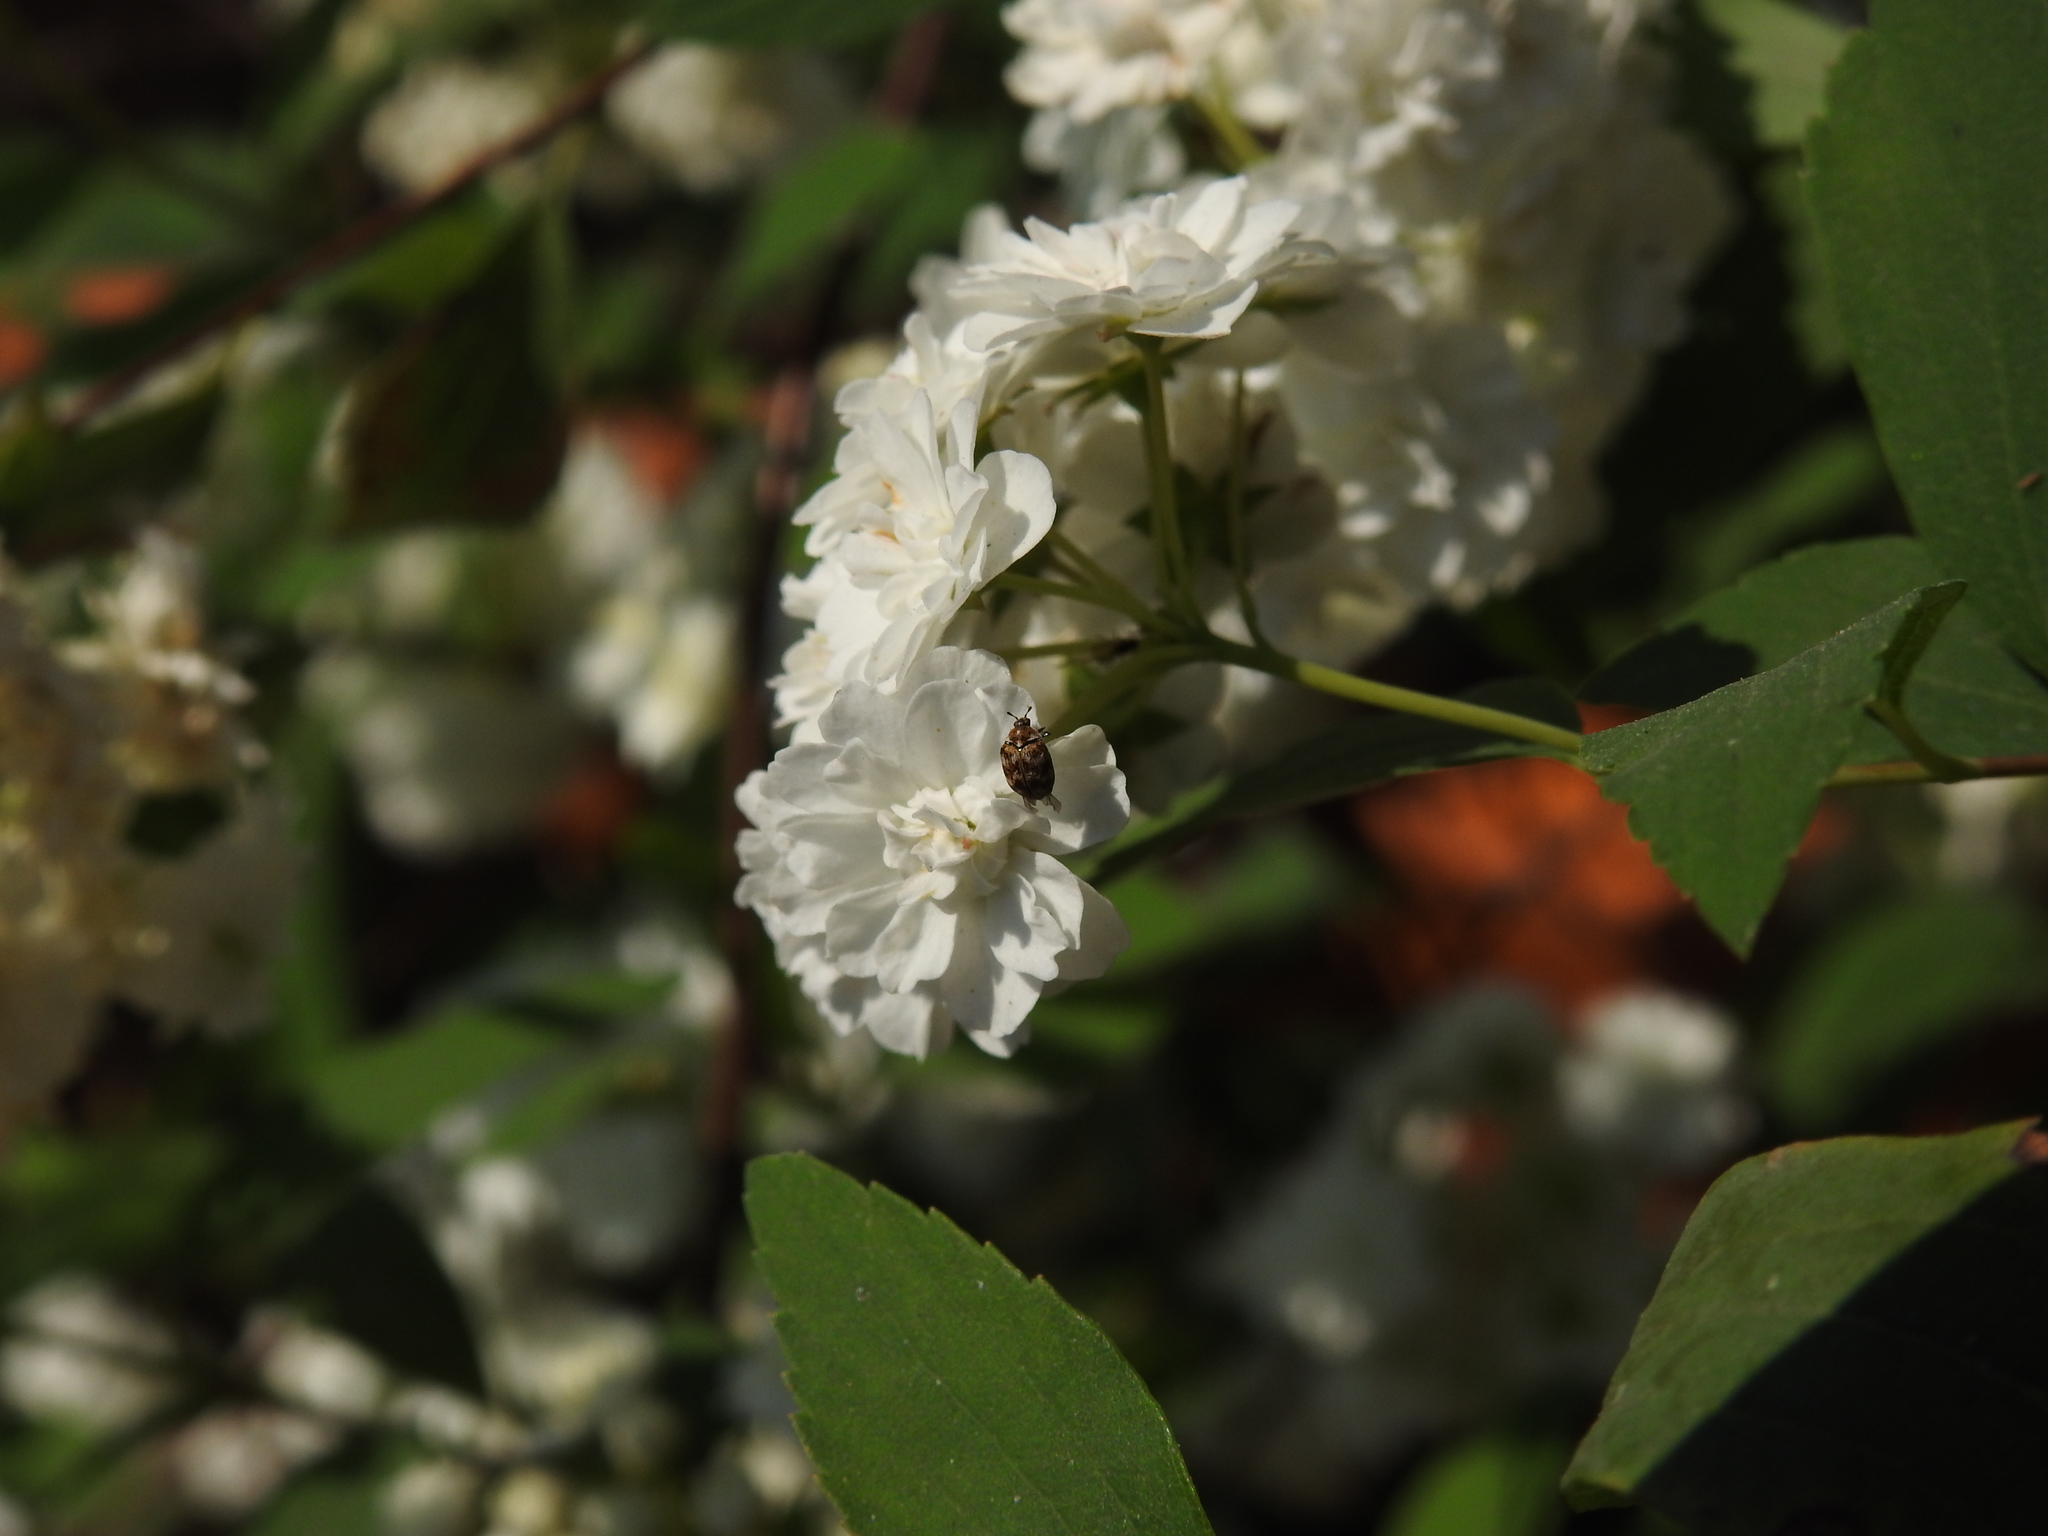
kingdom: Animalia
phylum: Arthropoda
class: Insecta
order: Coleoptera
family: Dermestidae
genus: Anthrenus
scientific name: Anthrenus verbasci
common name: Varied carpet beetle
